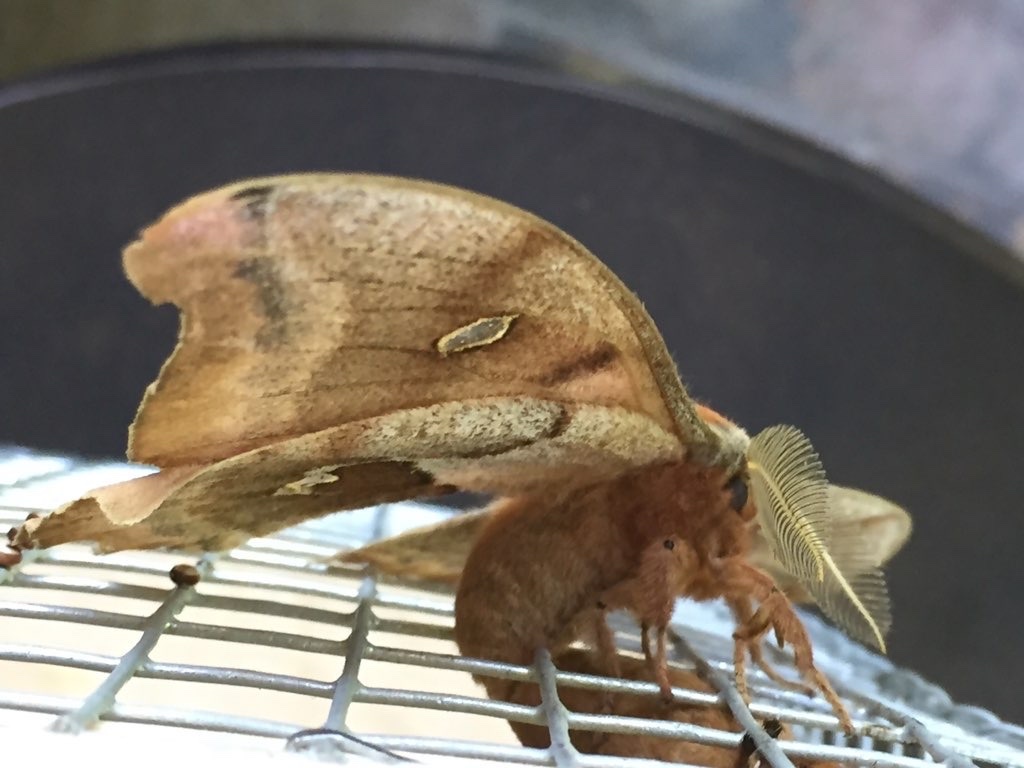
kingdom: Animalia
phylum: Arthropoda
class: Insecta
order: Lepidoptera
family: Saturniidae
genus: Antheraea
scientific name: Antheraea polyphemus
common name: Polyphemus moth
